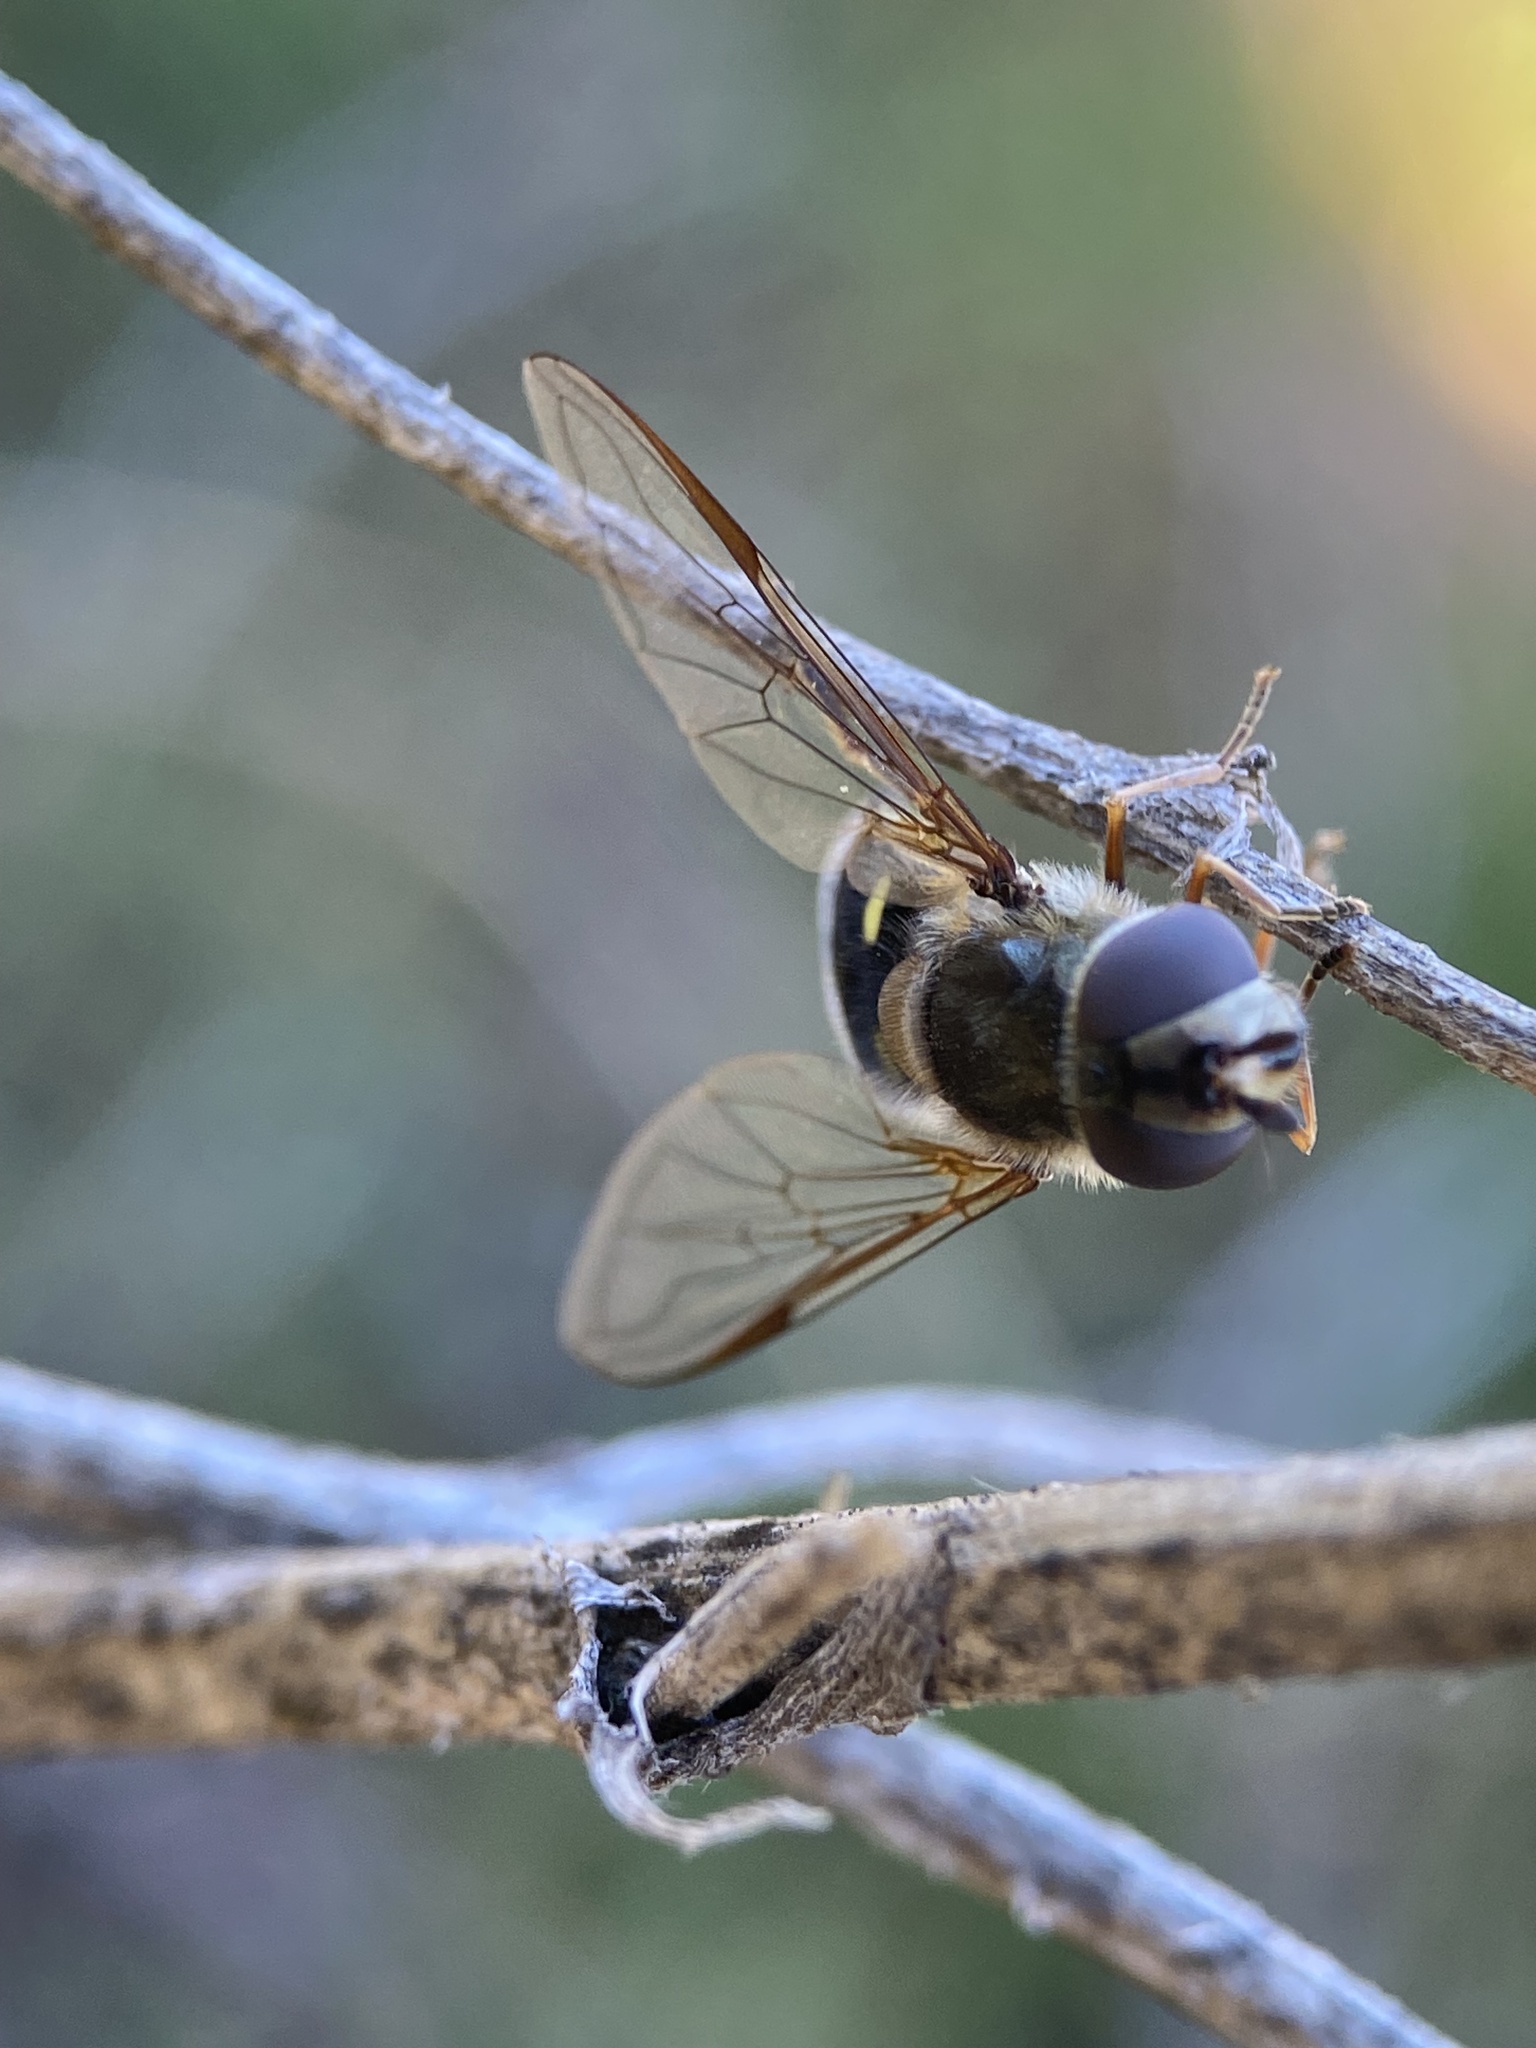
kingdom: Animalia
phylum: Arthropoda
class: Insecta
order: Diptera
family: Syrphidae
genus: Lapposyrphus
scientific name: Lapposyrphus lapponicus
